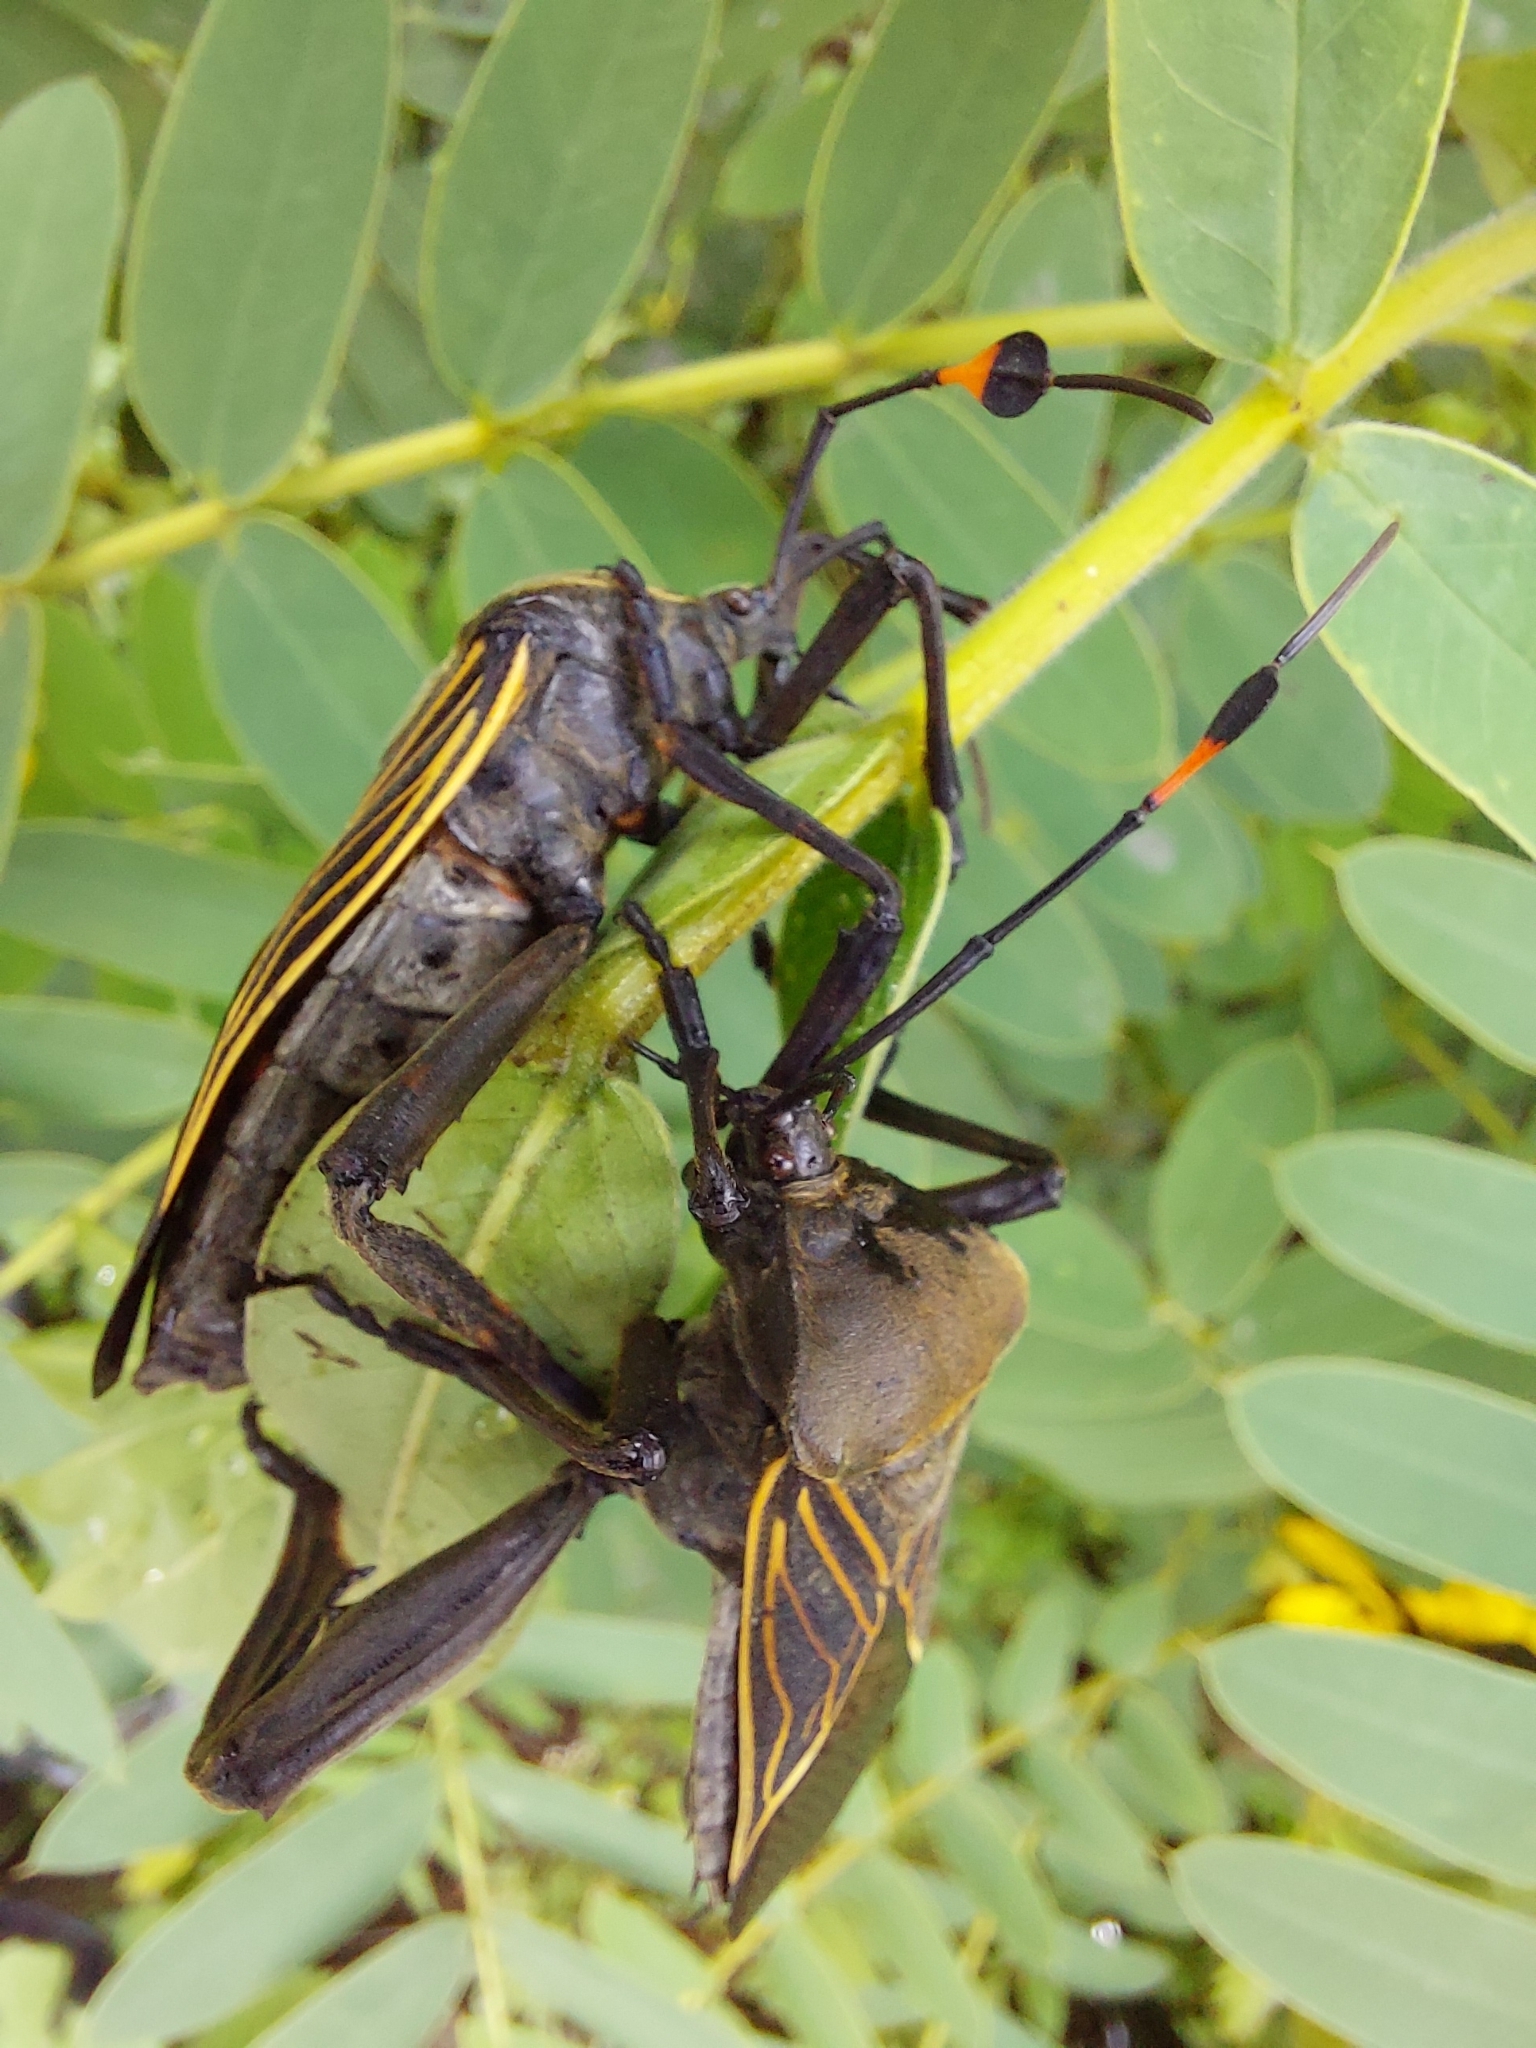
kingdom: Animalia
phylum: Arthropoda
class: Insecta
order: Hemiptera
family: Coreidae
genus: Thasus
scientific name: Thasus
